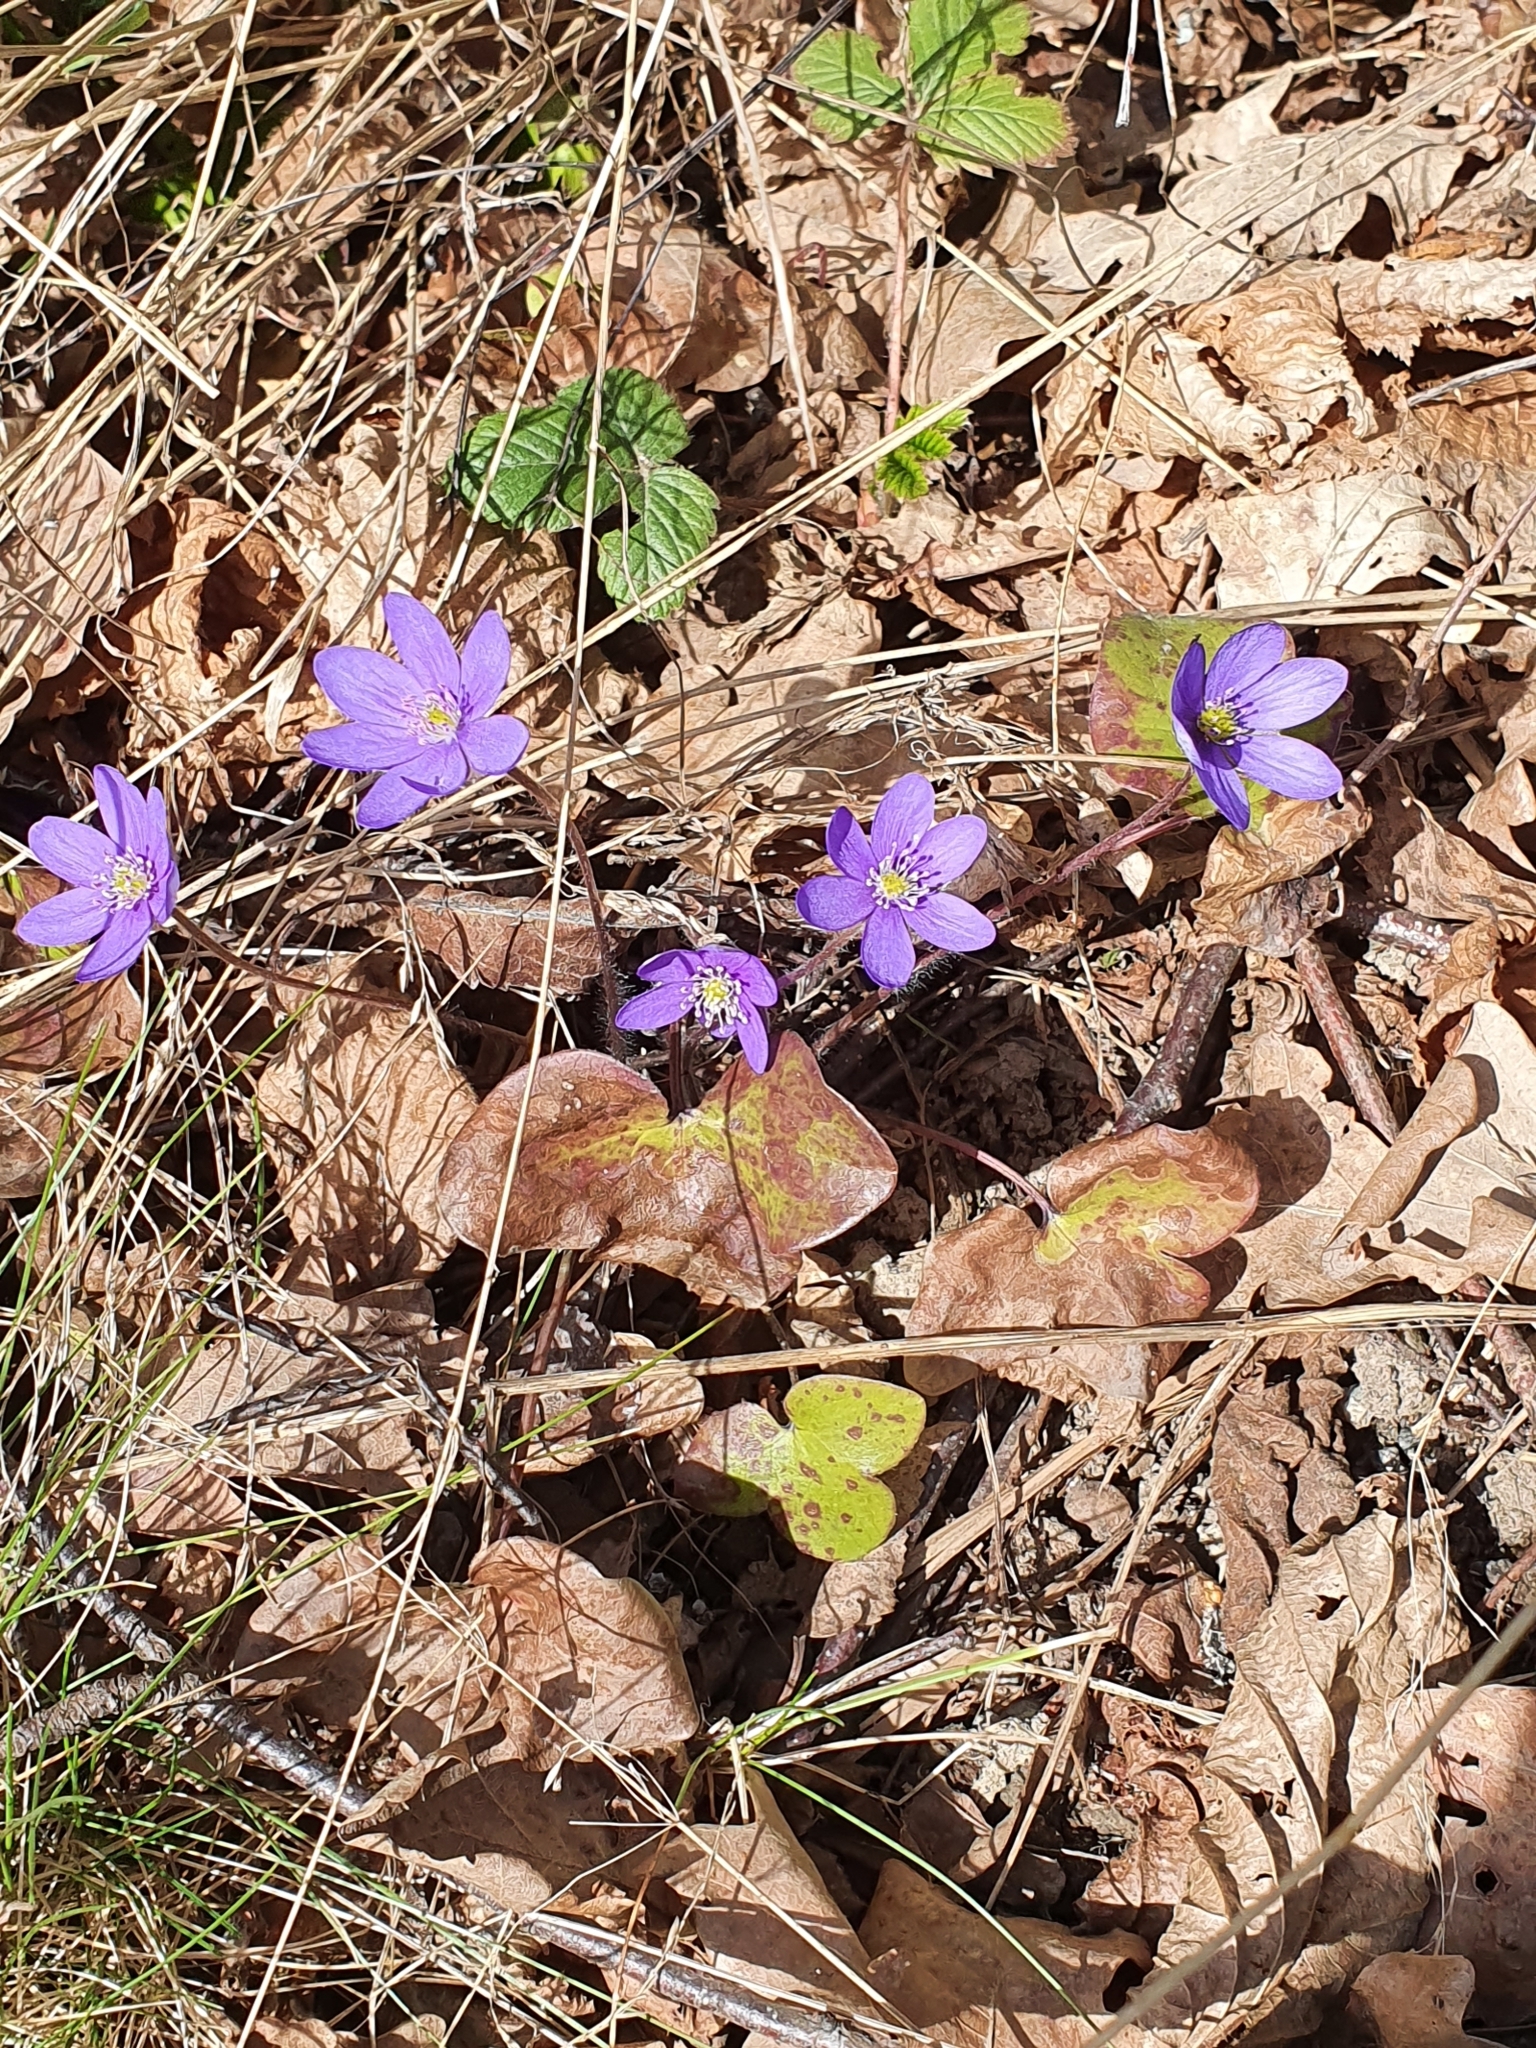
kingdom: Plantae
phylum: Tracheophyta
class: Magnoliopsida
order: Ranunculales
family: Ranunculaceae
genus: Hepatica
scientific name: Hepatica nobilis
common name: Liverleaf
